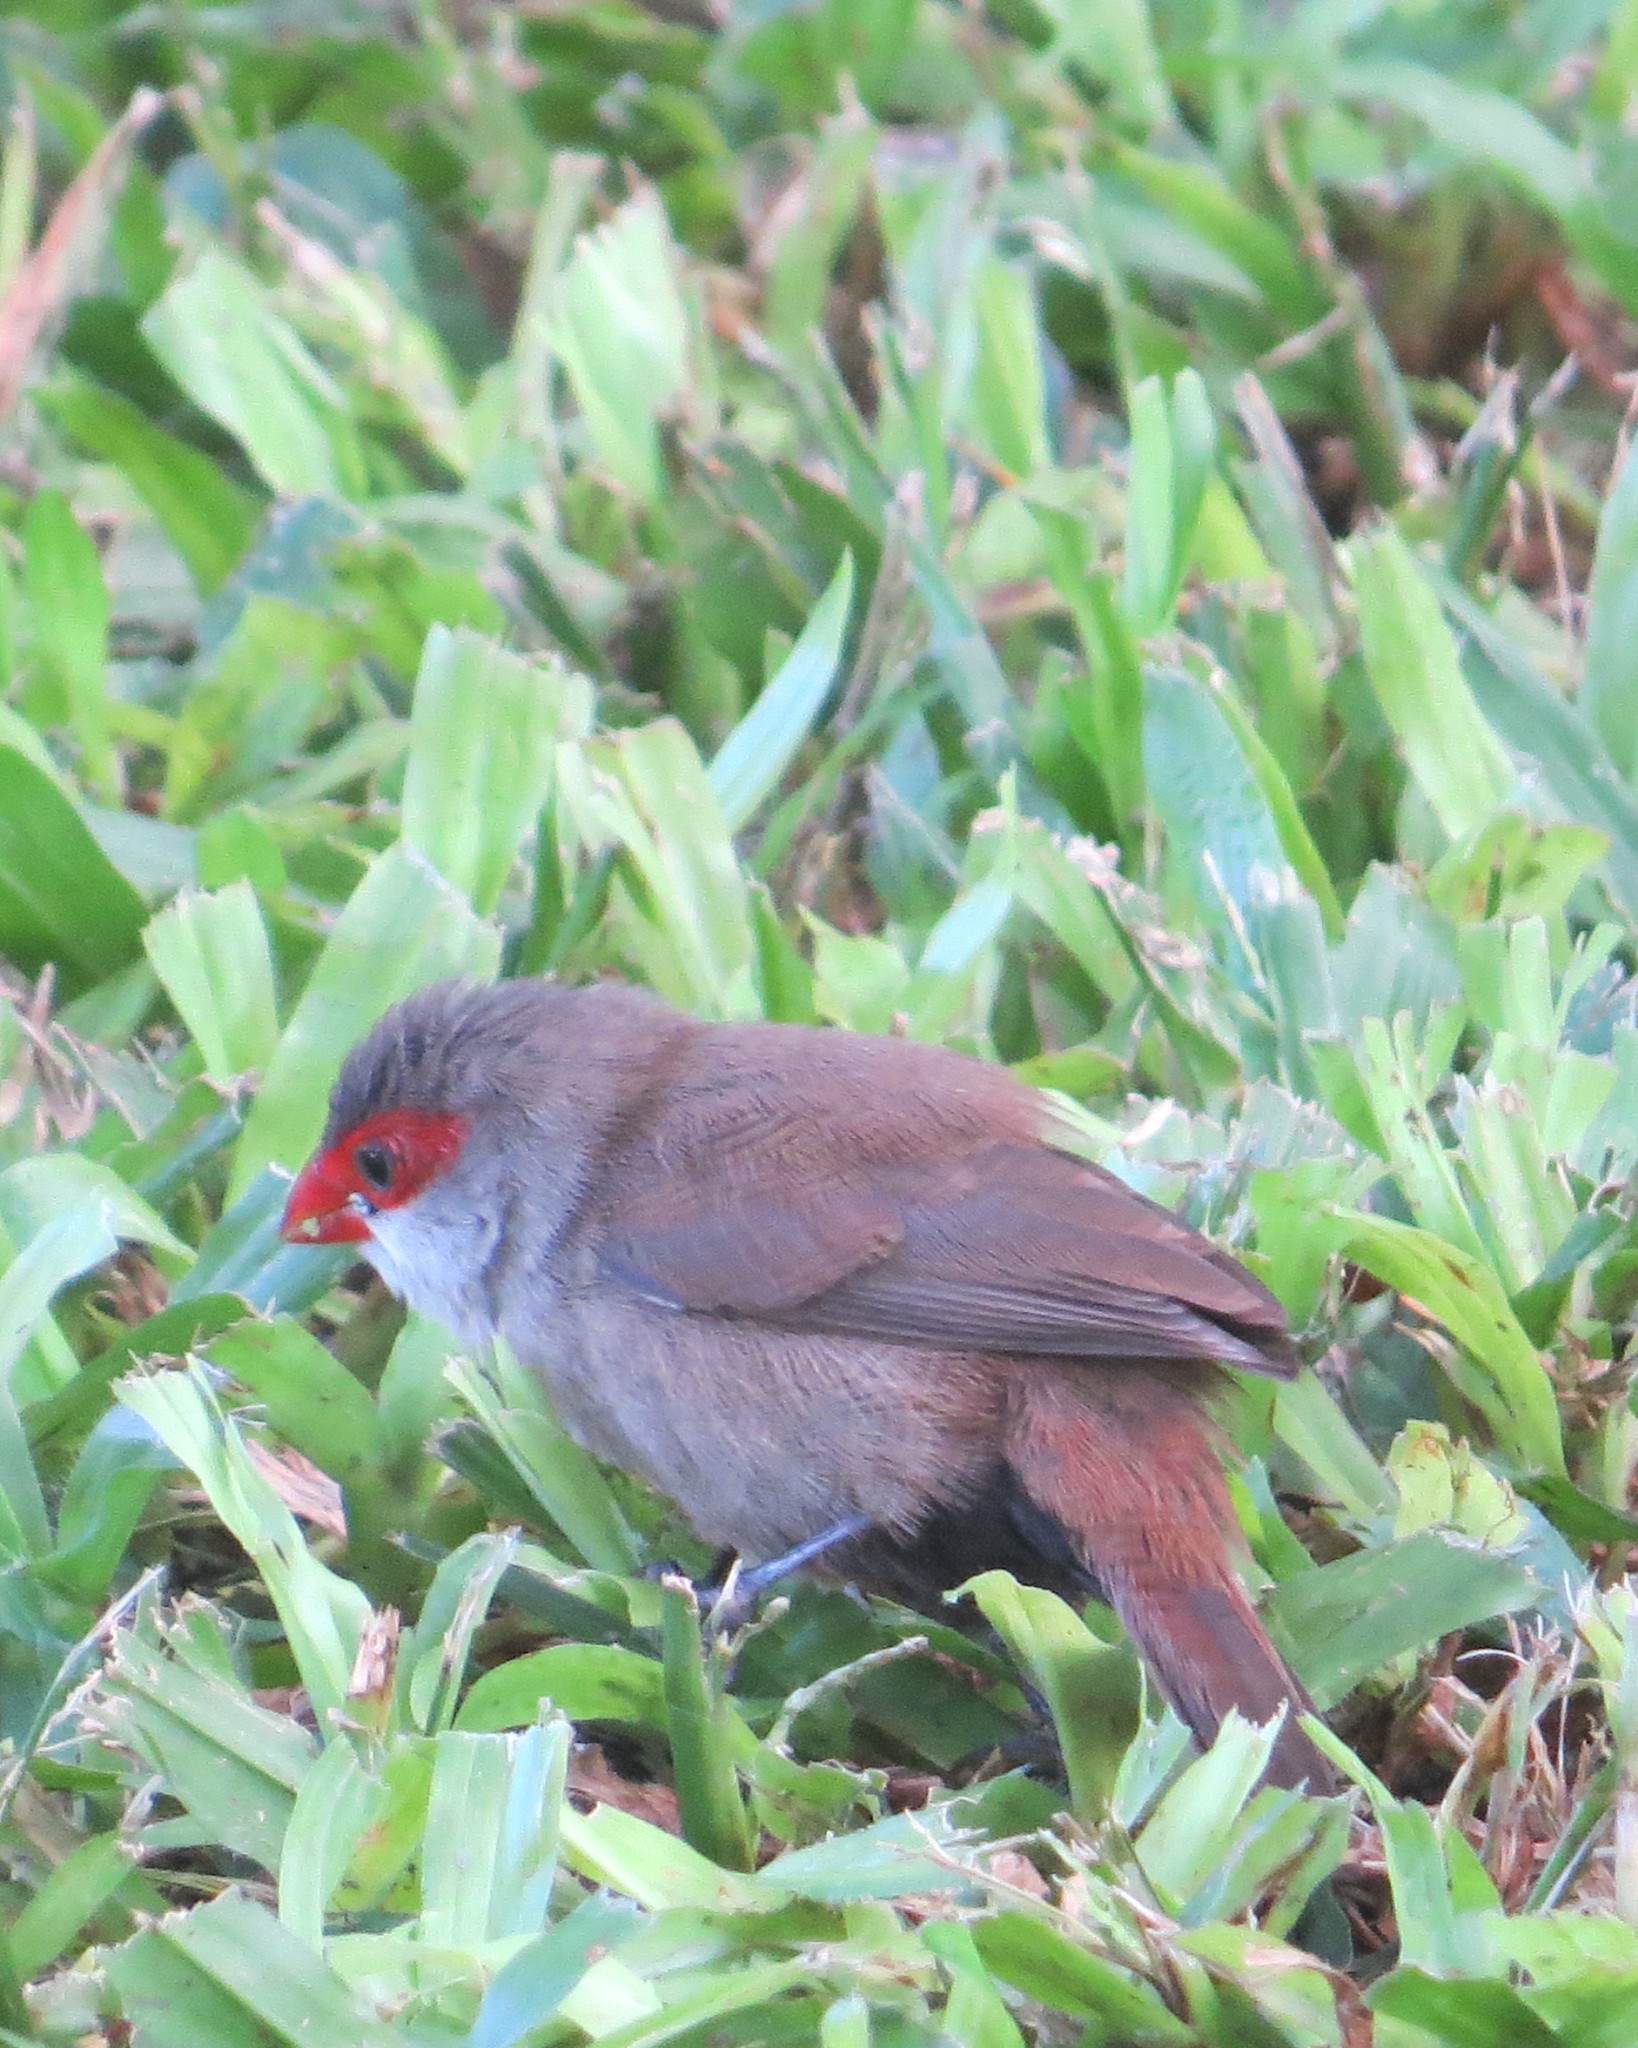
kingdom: Animalia
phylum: Chordata
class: Aves
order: Passeriformes
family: Estrildidae
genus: Estrilda
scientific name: Estrilda astrild
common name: Common waxbill
